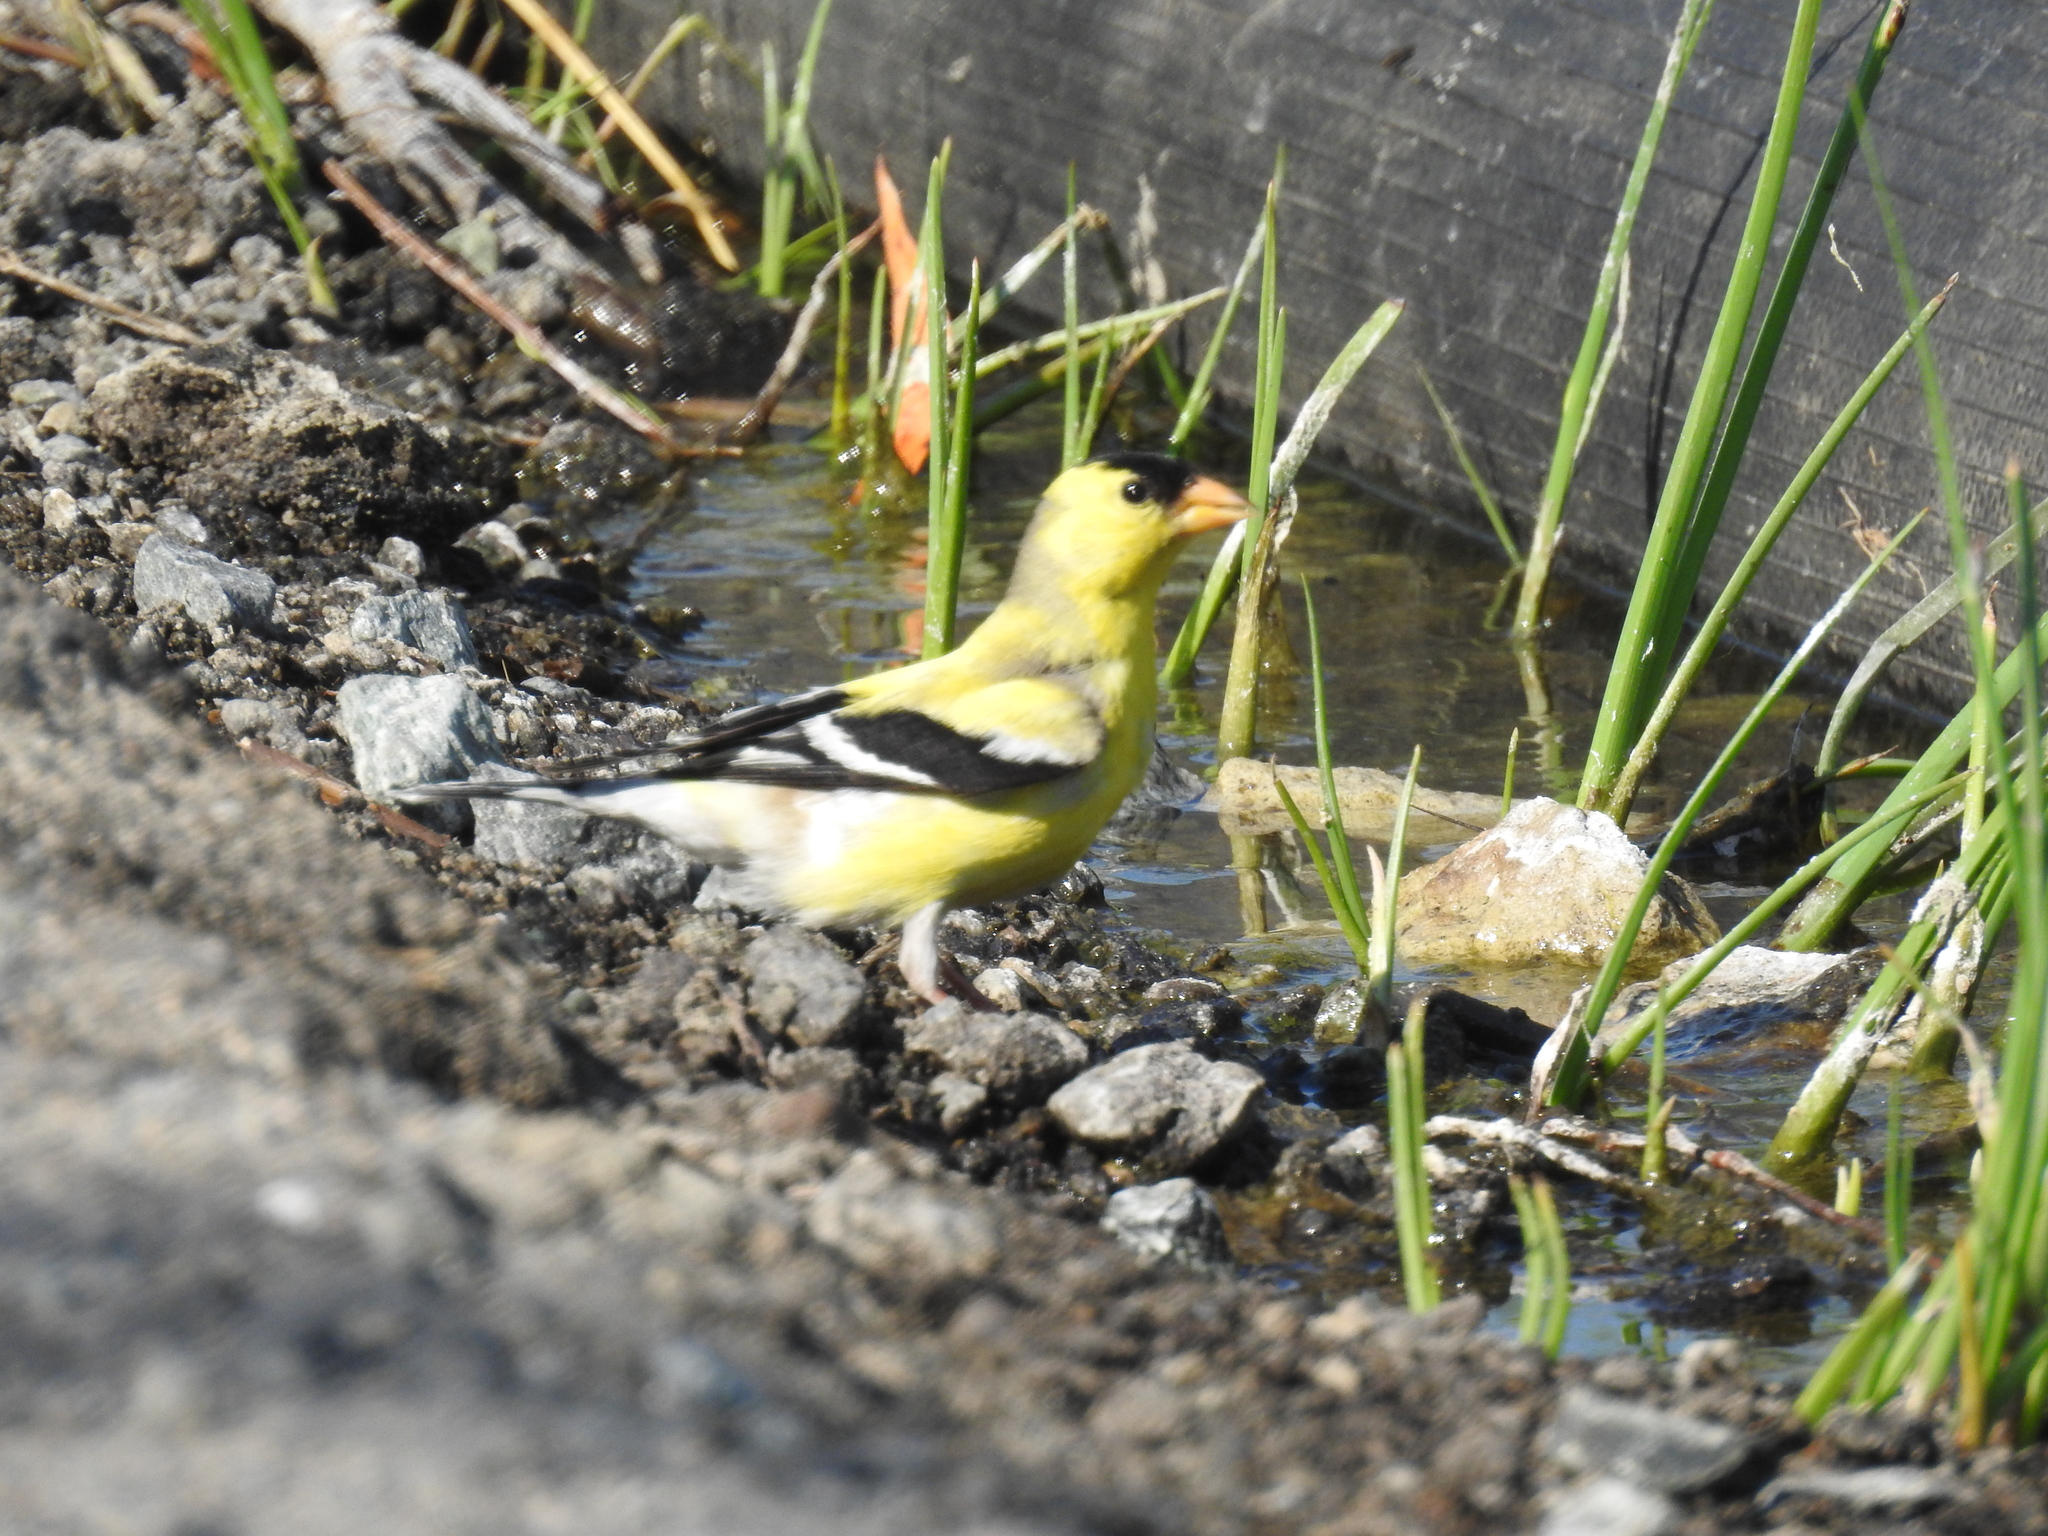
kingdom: Animalia
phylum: Chordata
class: Aves
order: Passeriformes
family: Fringillidae
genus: Spinus
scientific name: Spinus tristis
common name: American goldfinch
